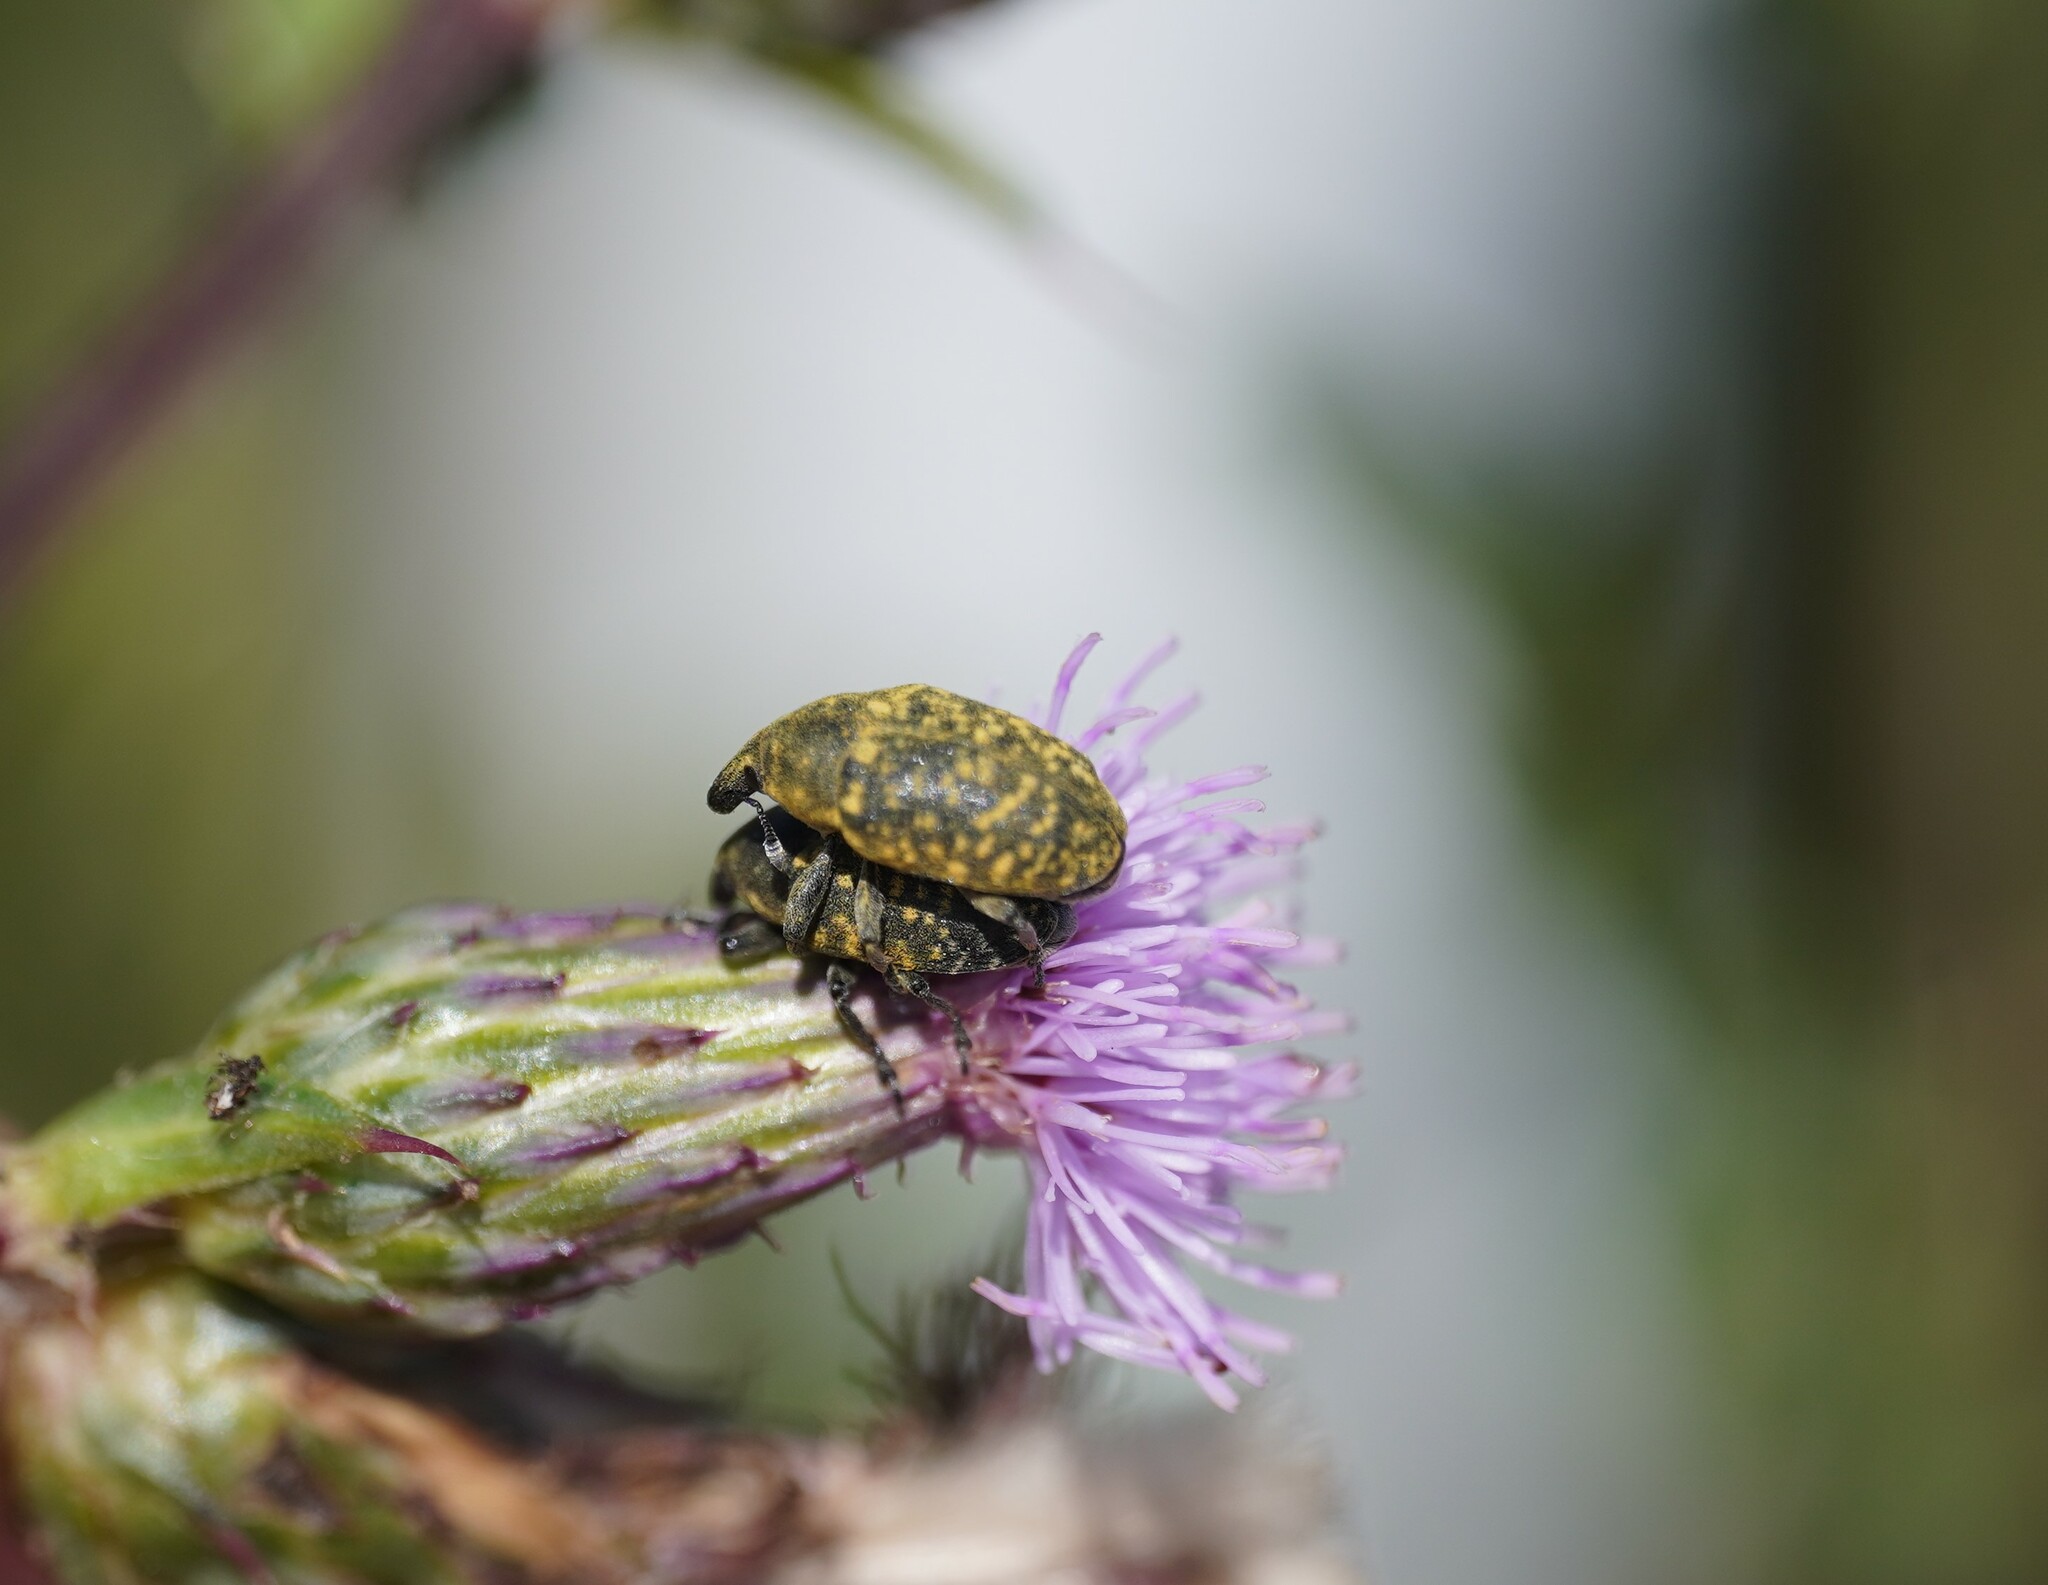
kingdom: Animalia
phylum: Arthropoda
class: Insecta
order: Coleoptera
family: Curculionidae
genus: Larinus
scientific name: Larinus turbinatus
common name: Weevil
